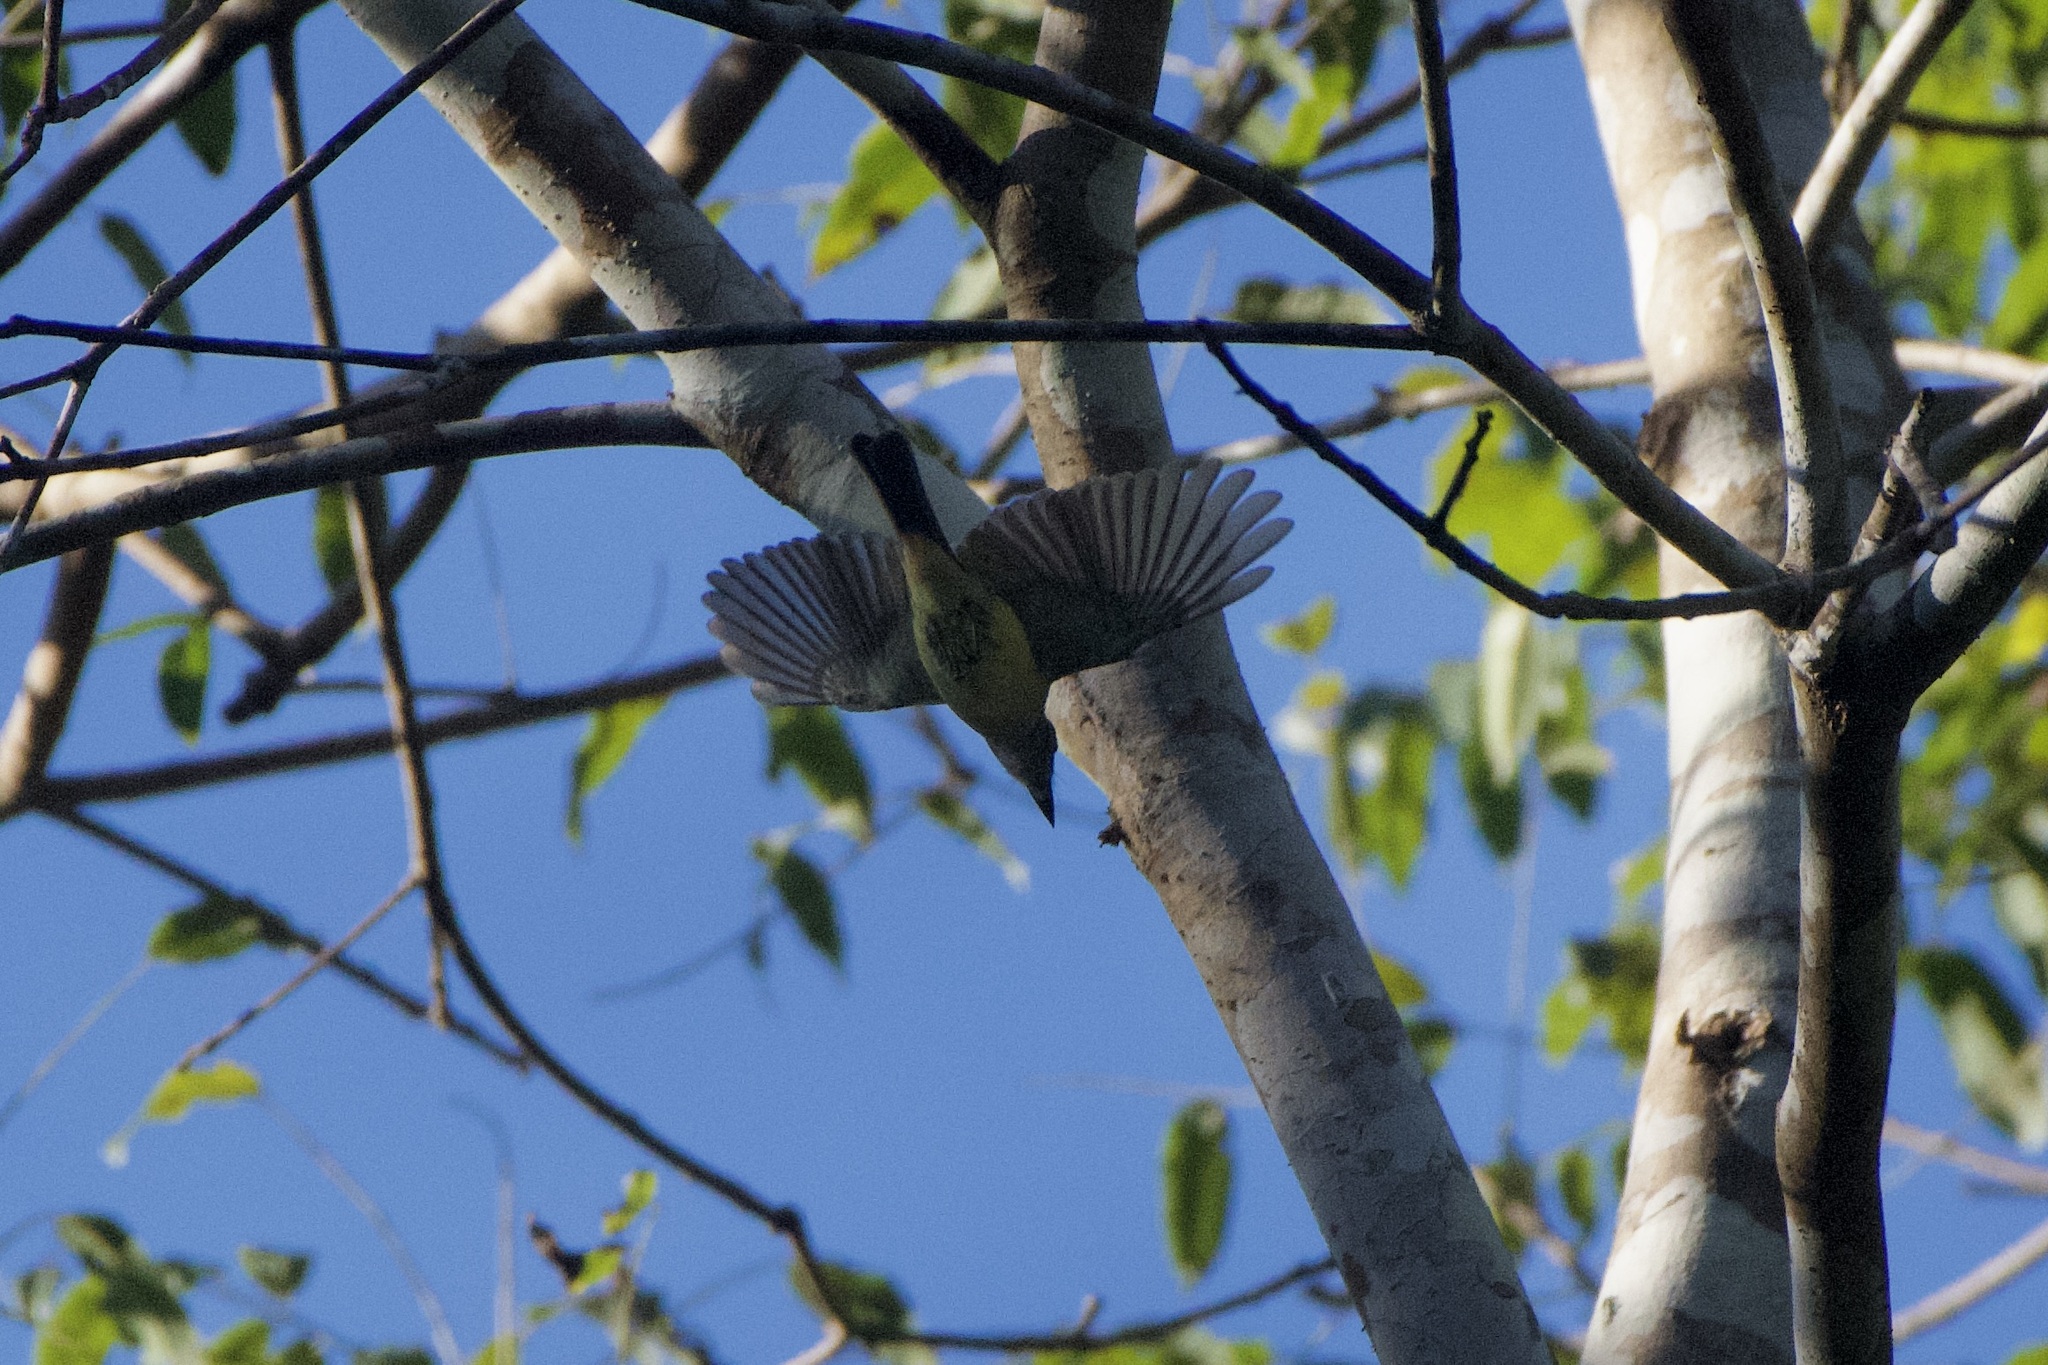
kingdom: Animalia
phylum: Chordata
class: Aves
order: Passeriformes
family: Tyrannidae
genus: Myiarchus
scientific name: Myiarchus panamensis
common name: Panama flycatcher
